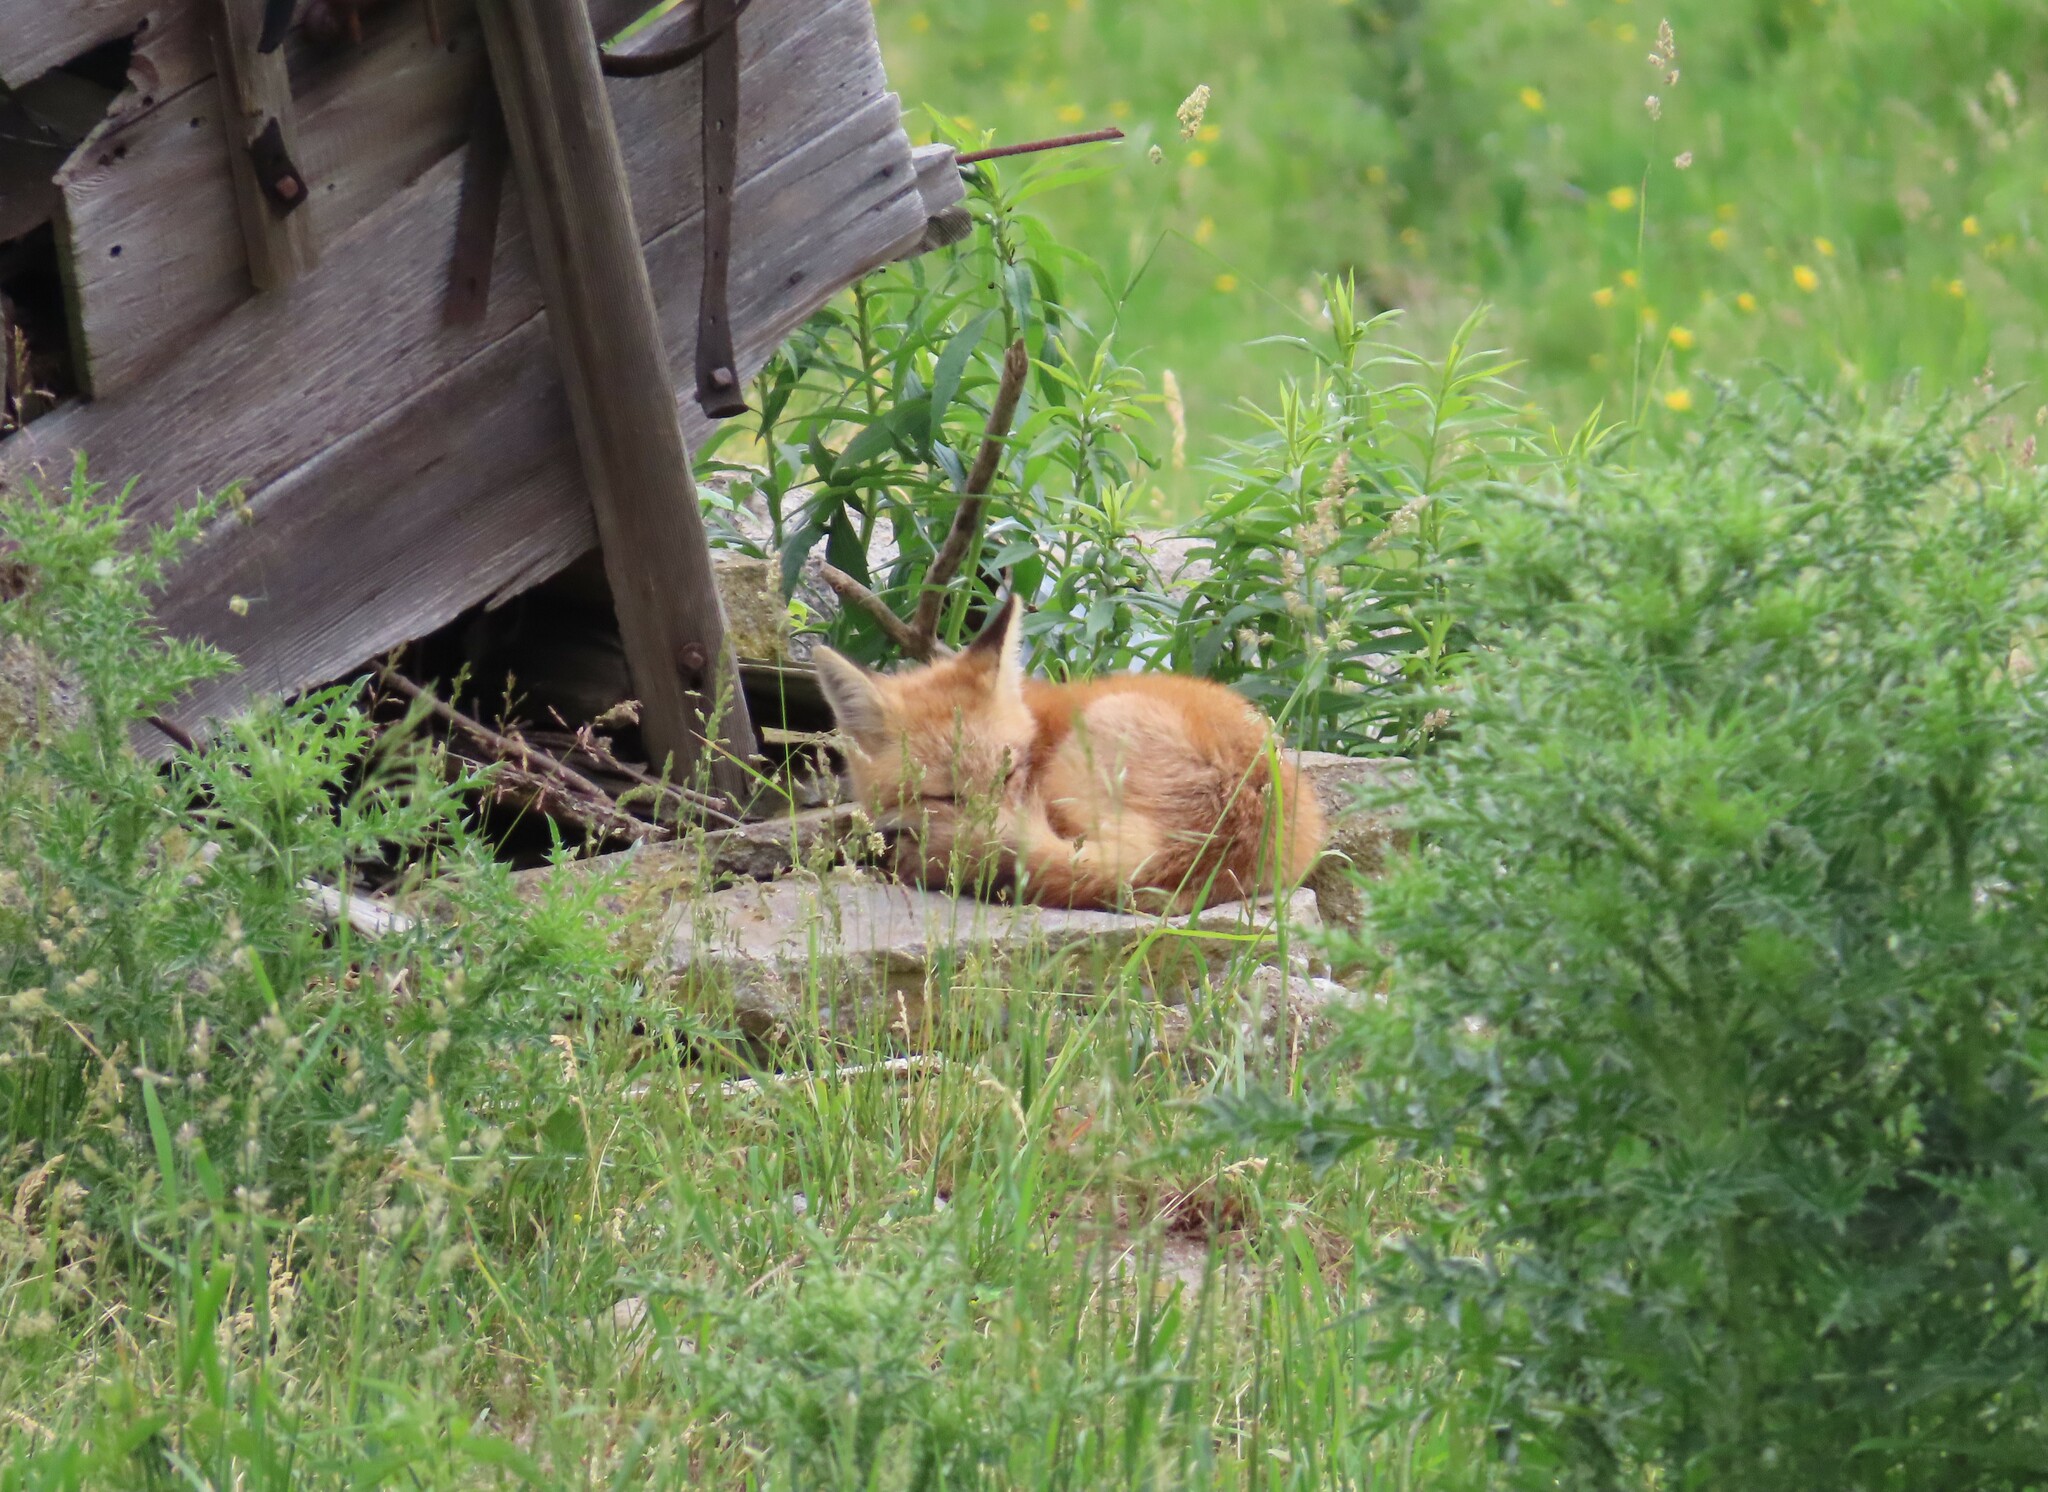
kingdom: Animalia
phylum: Chordata
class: Mammalia
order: Carnivora
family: Canidae
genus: Vulpes
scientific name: Vulpes vulpes
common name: Red fox
